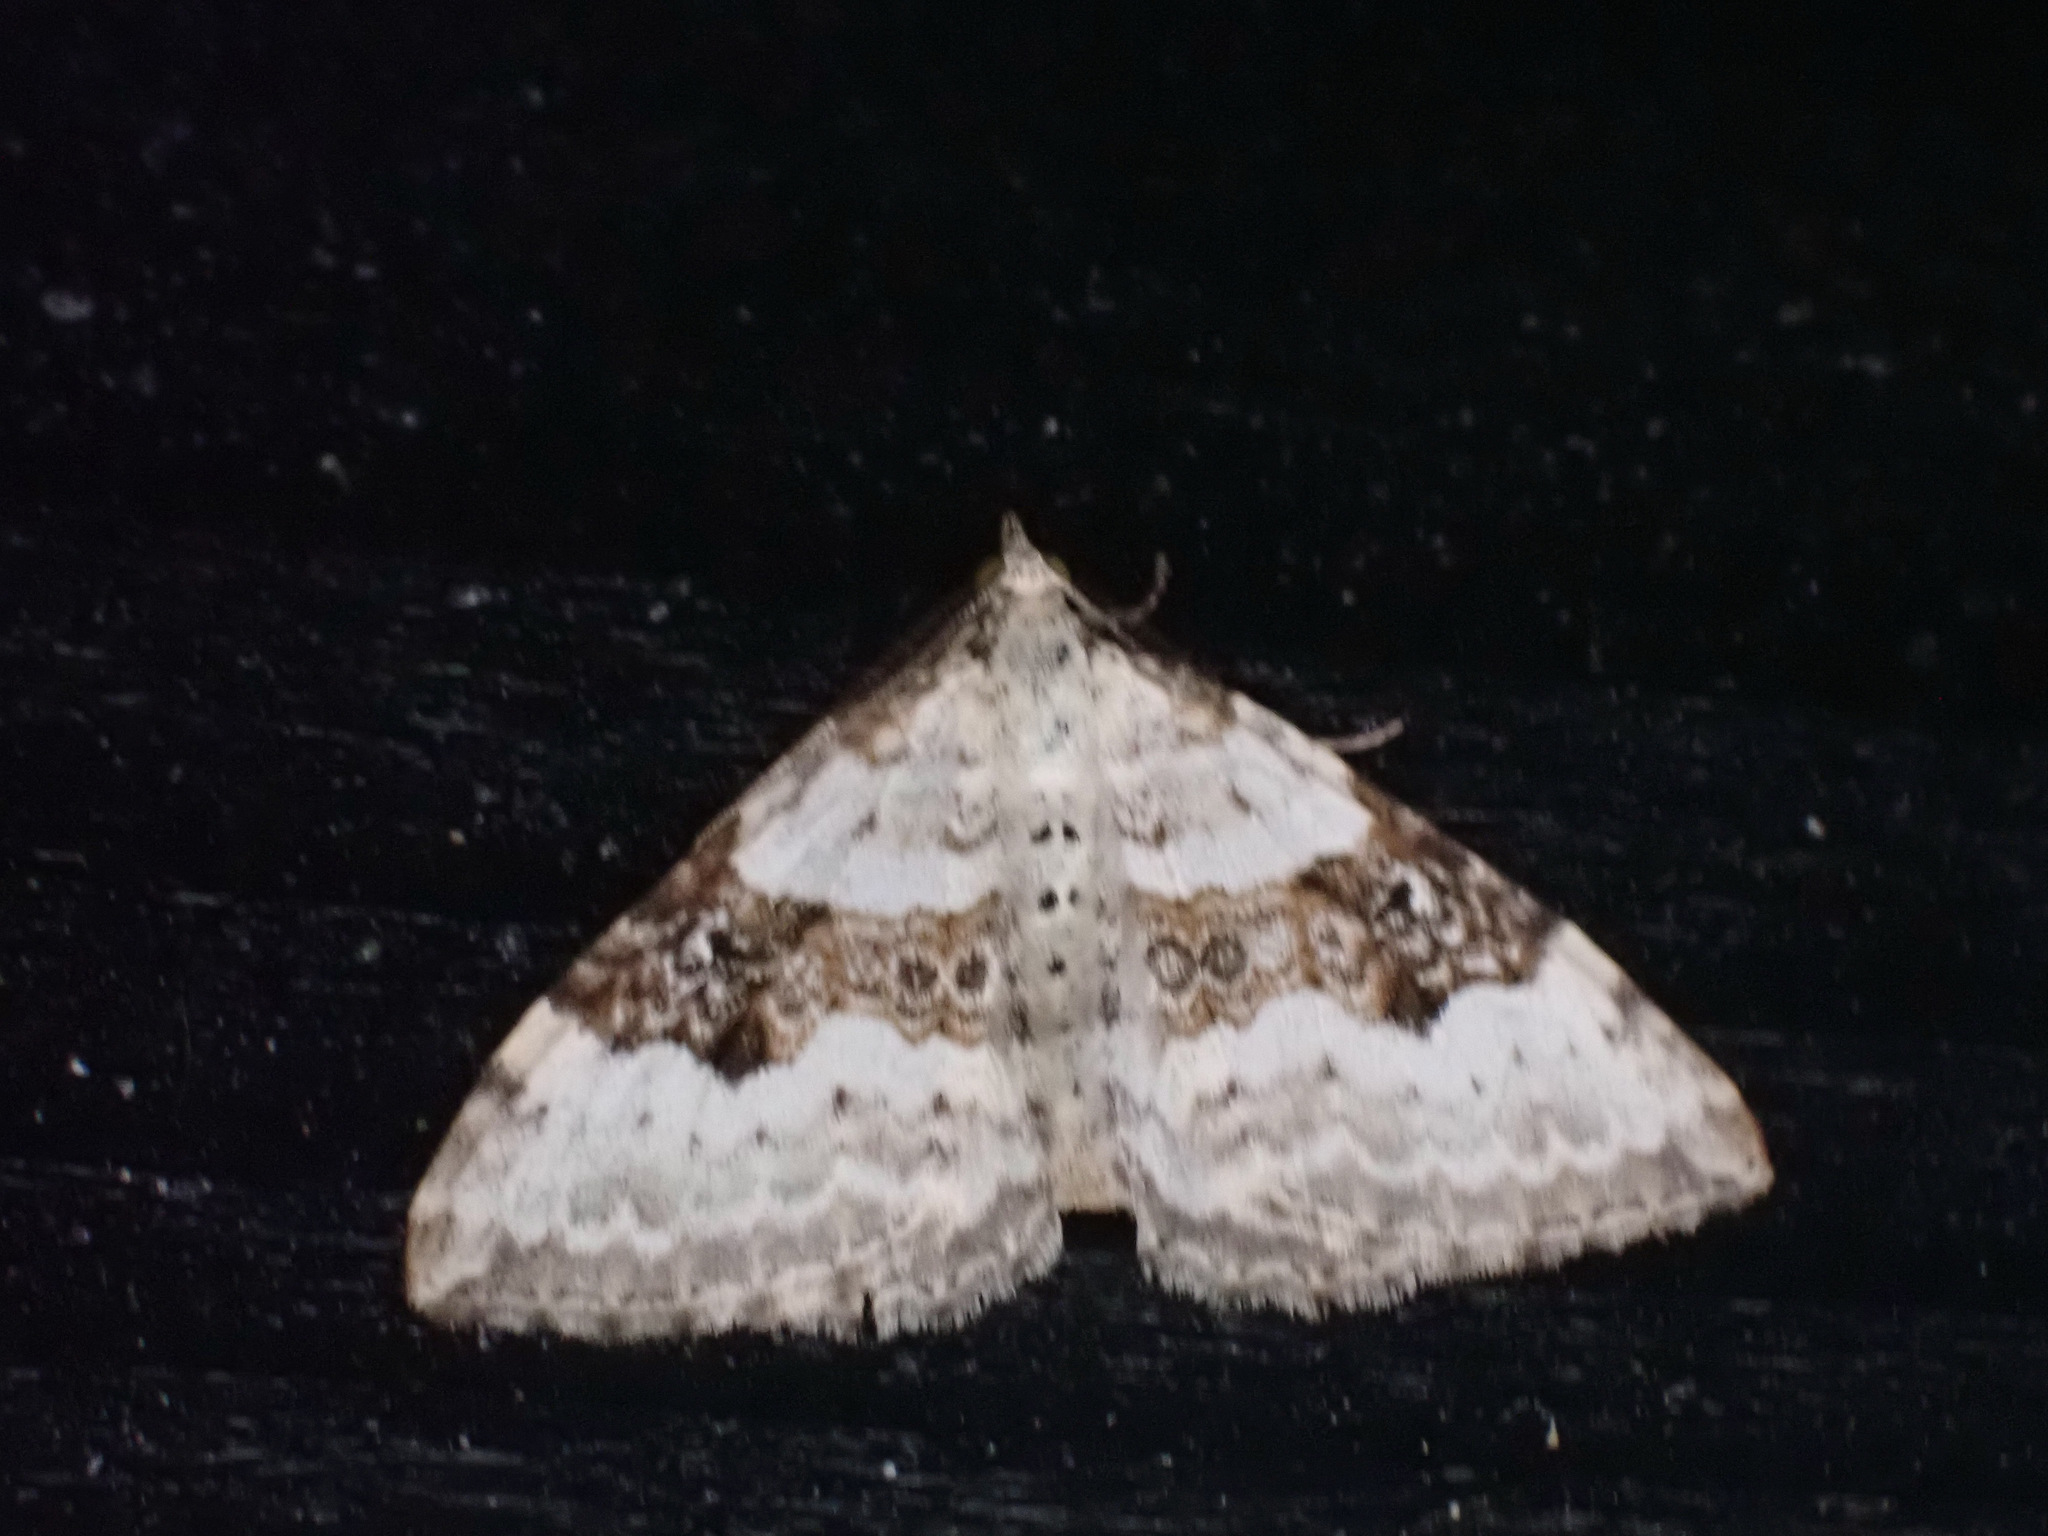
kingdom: Animalia
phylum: Arthropoda
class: Insecta
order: Lepidoptera
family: Geometridae
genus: Xanthorhoe
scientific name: Xanthorhoe montanata
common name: Silver-ground carpet
